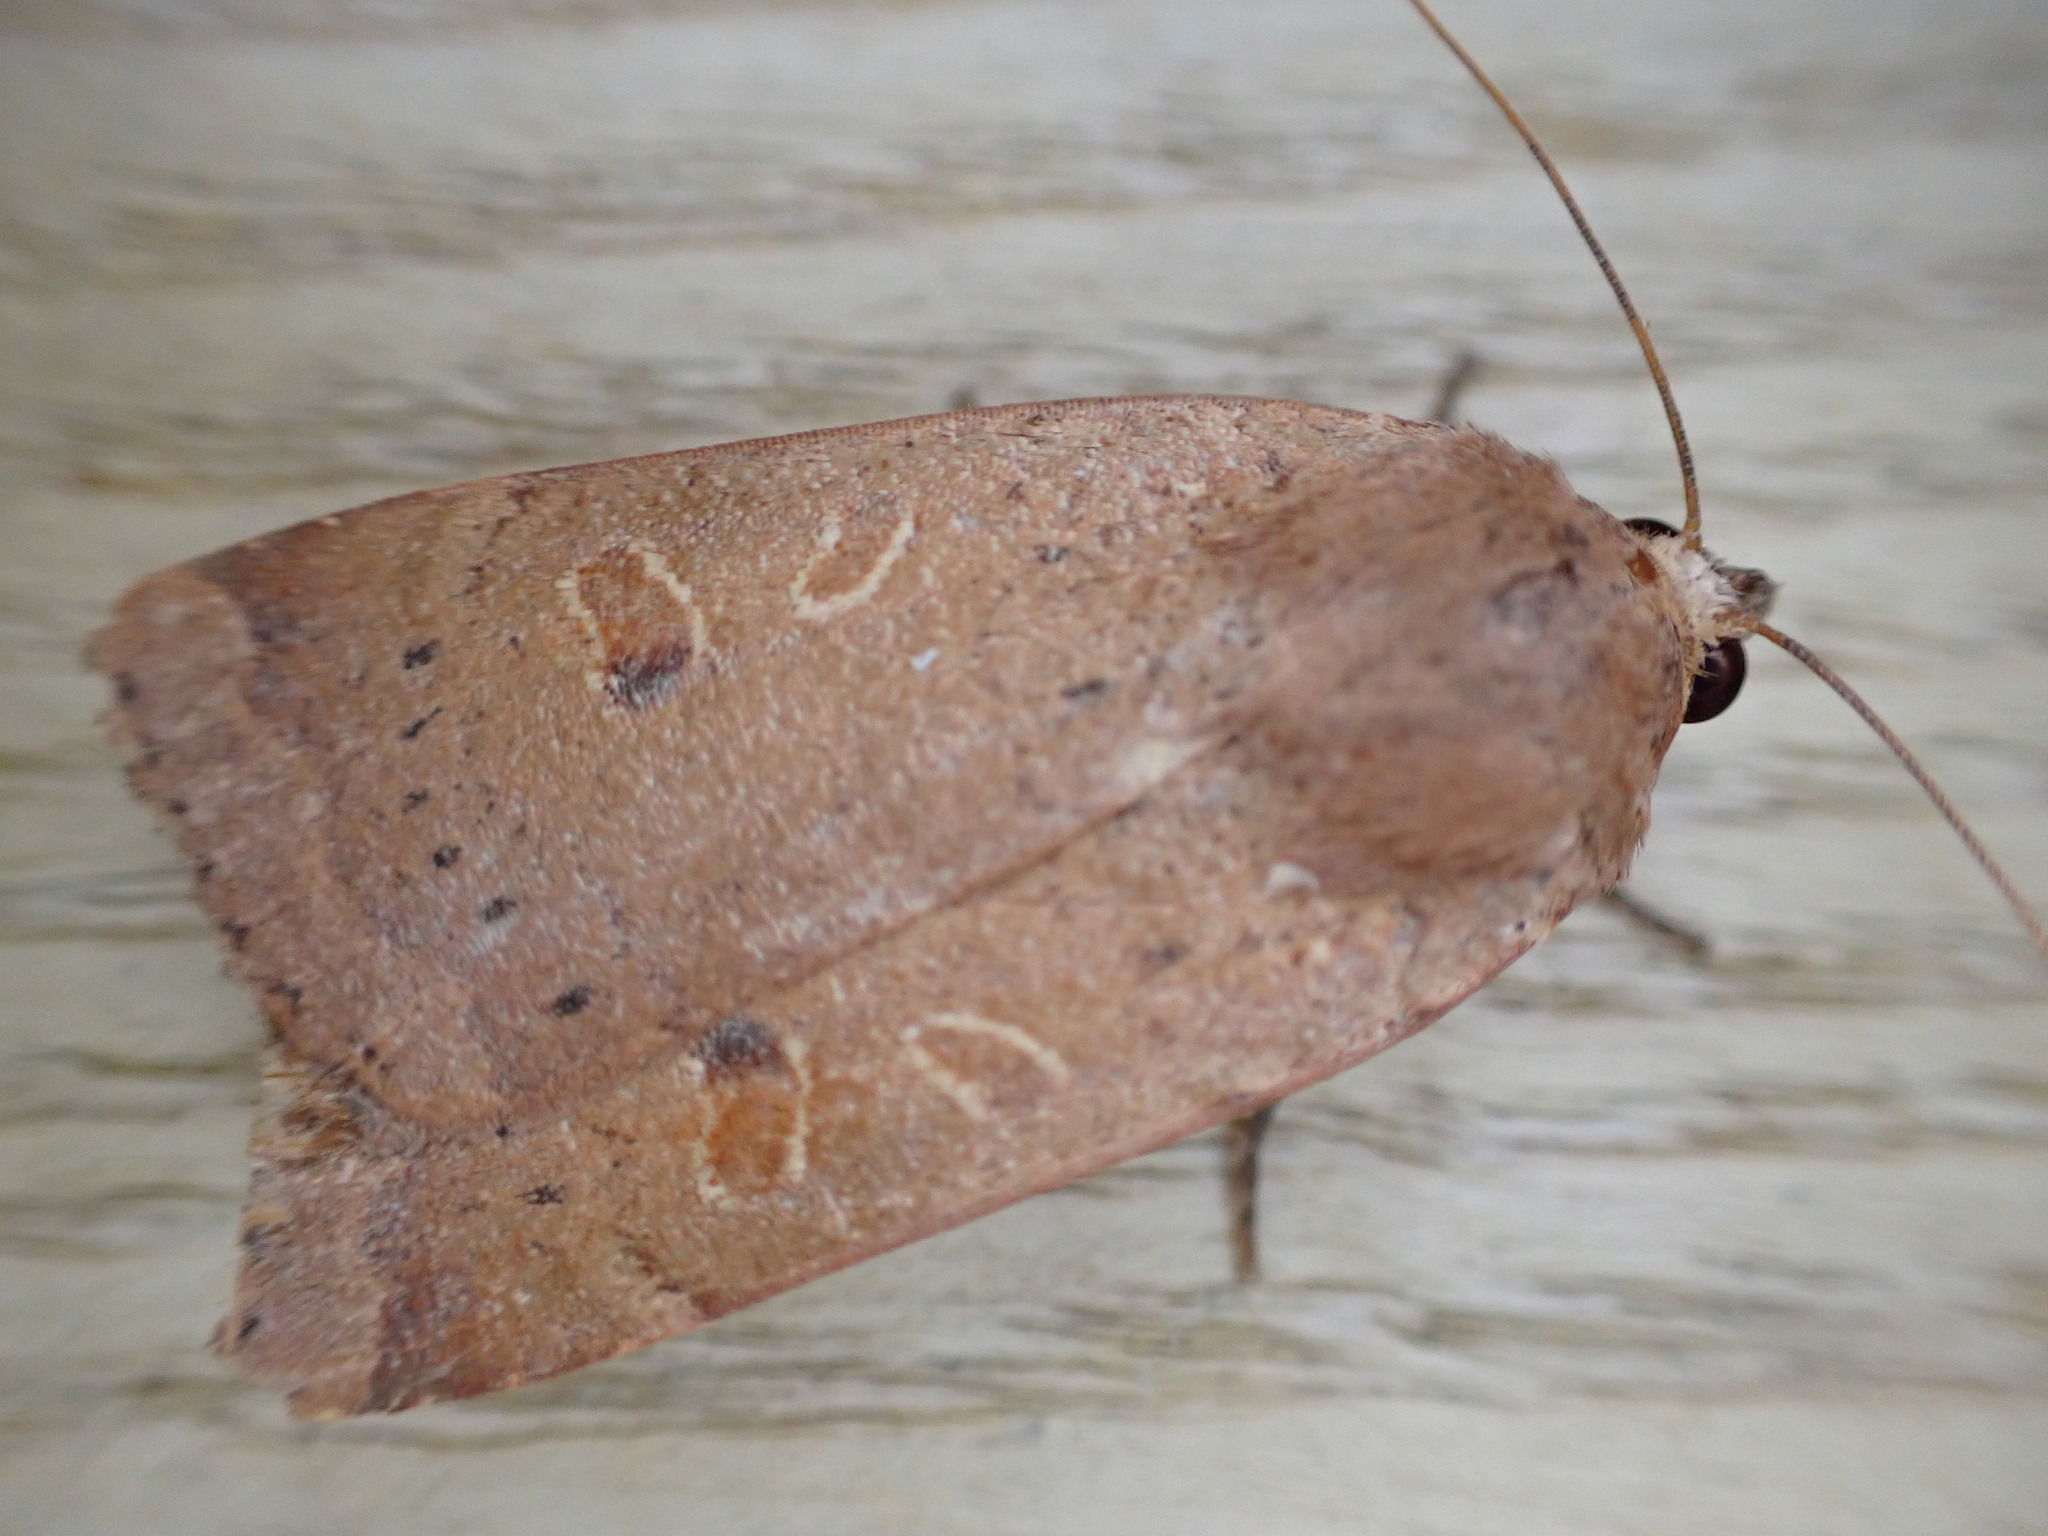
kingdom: Animalia
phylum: Arthropoda
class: Insecta
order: Lepidoptera
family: Noctuidae
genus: Noctua
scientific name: Noctua comes
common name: Lesser yellow underwing
